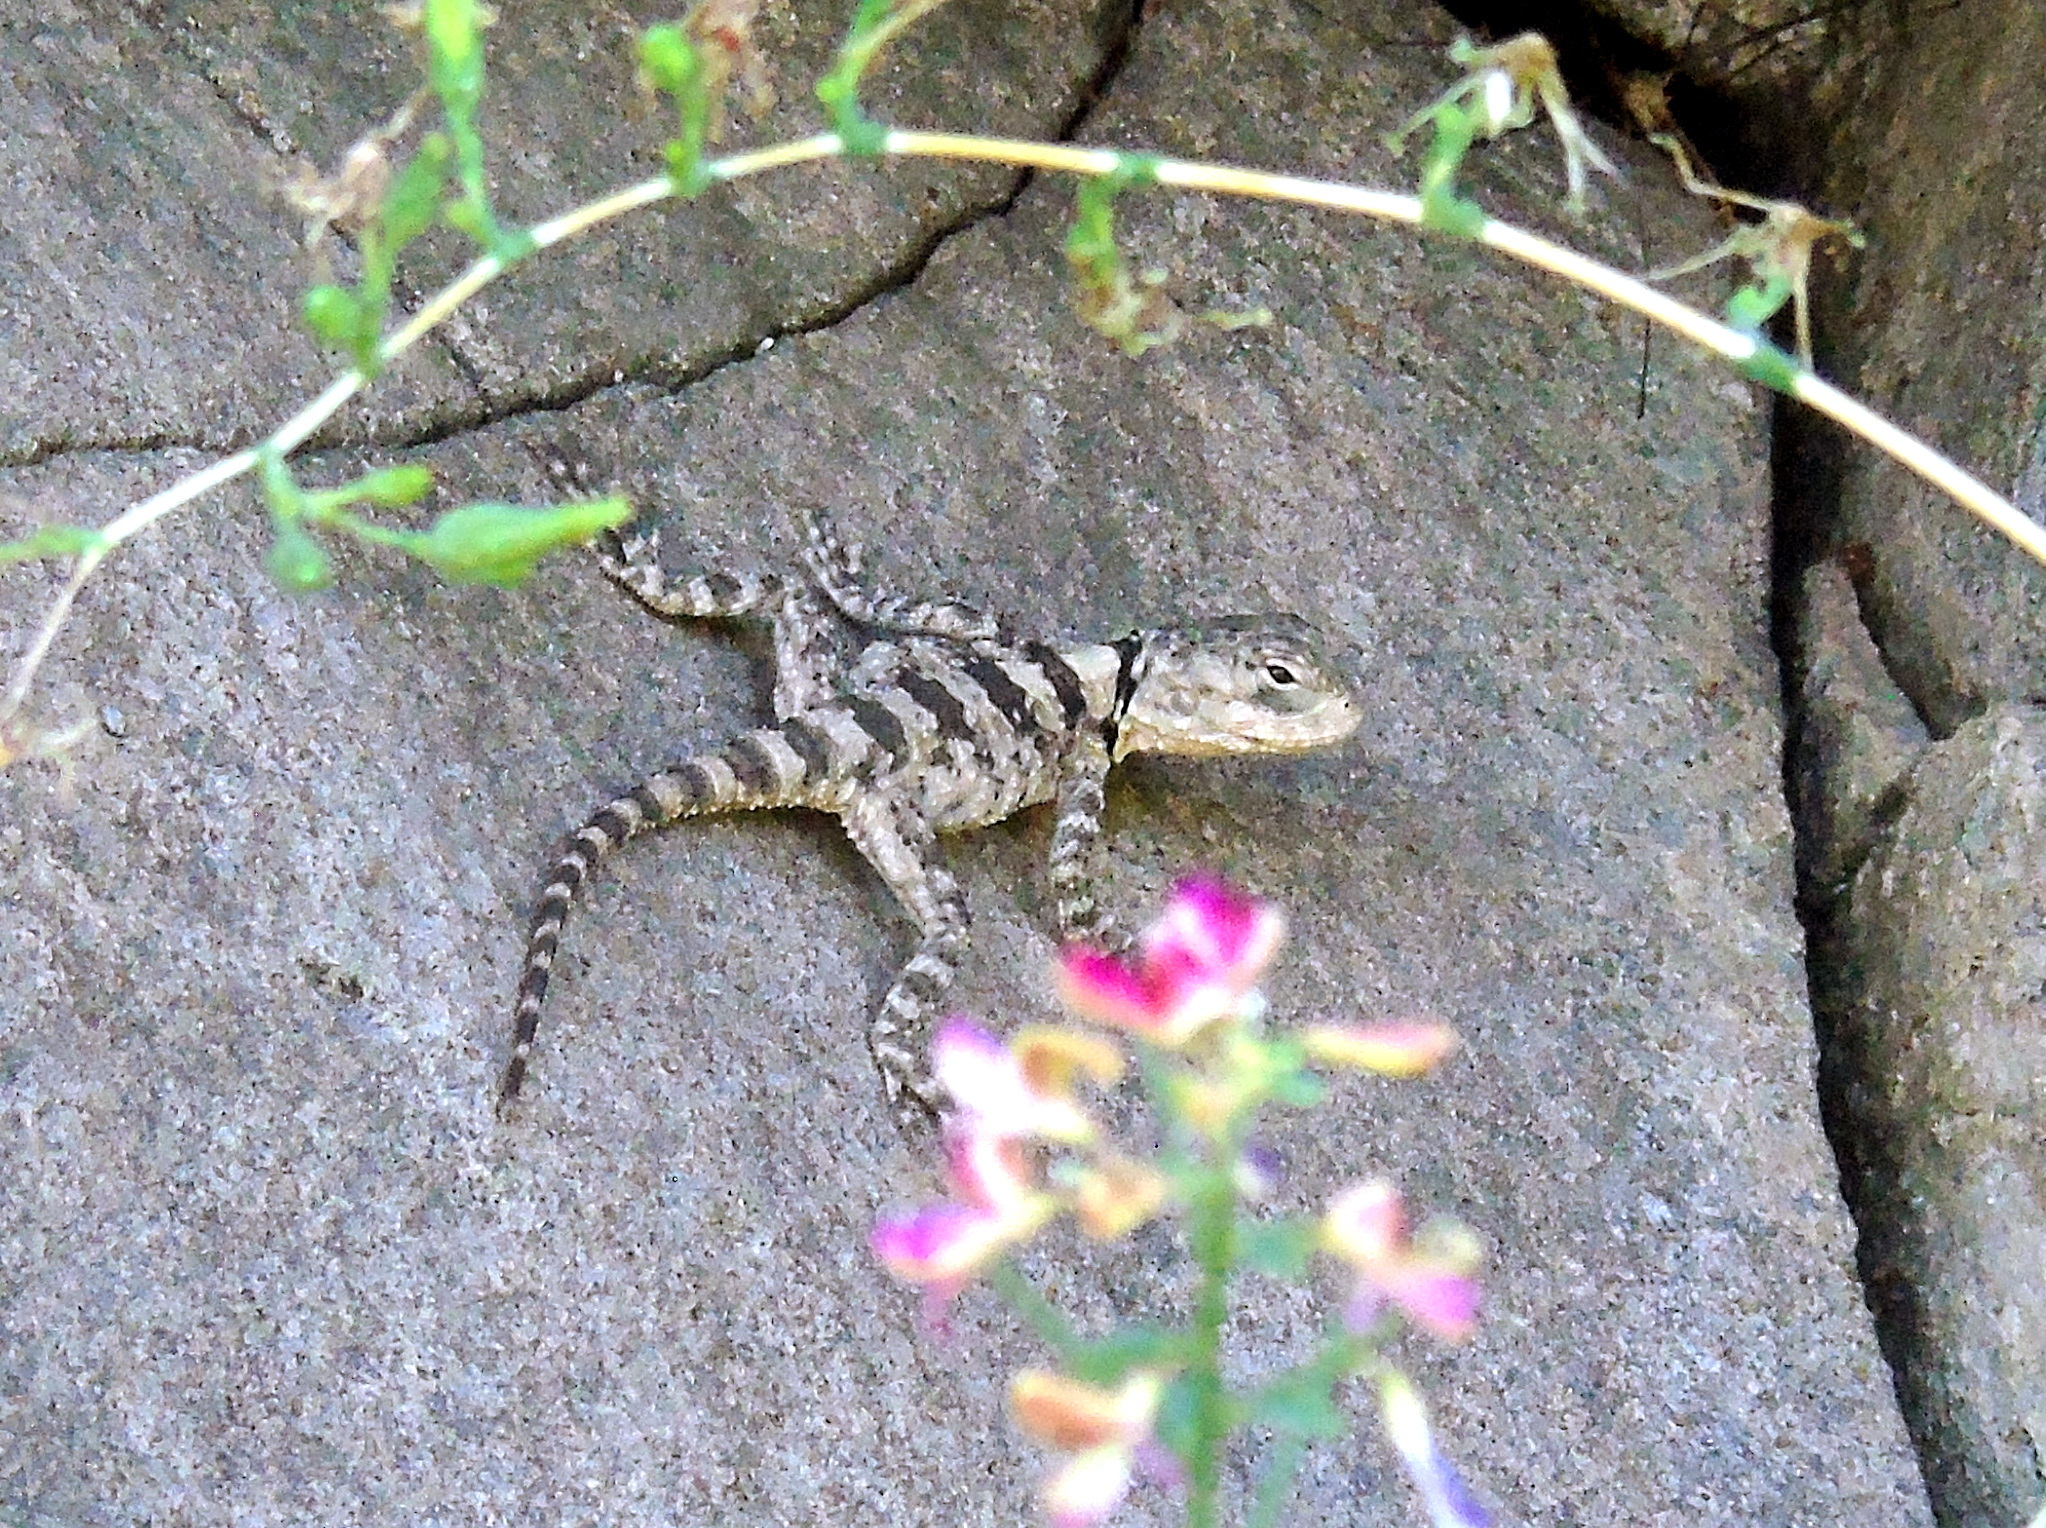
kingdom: Animalia
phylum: Chordata
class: Squamata
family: Agamidae
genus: Stellagama
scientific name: Stellagama stellio
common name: Starred agama
